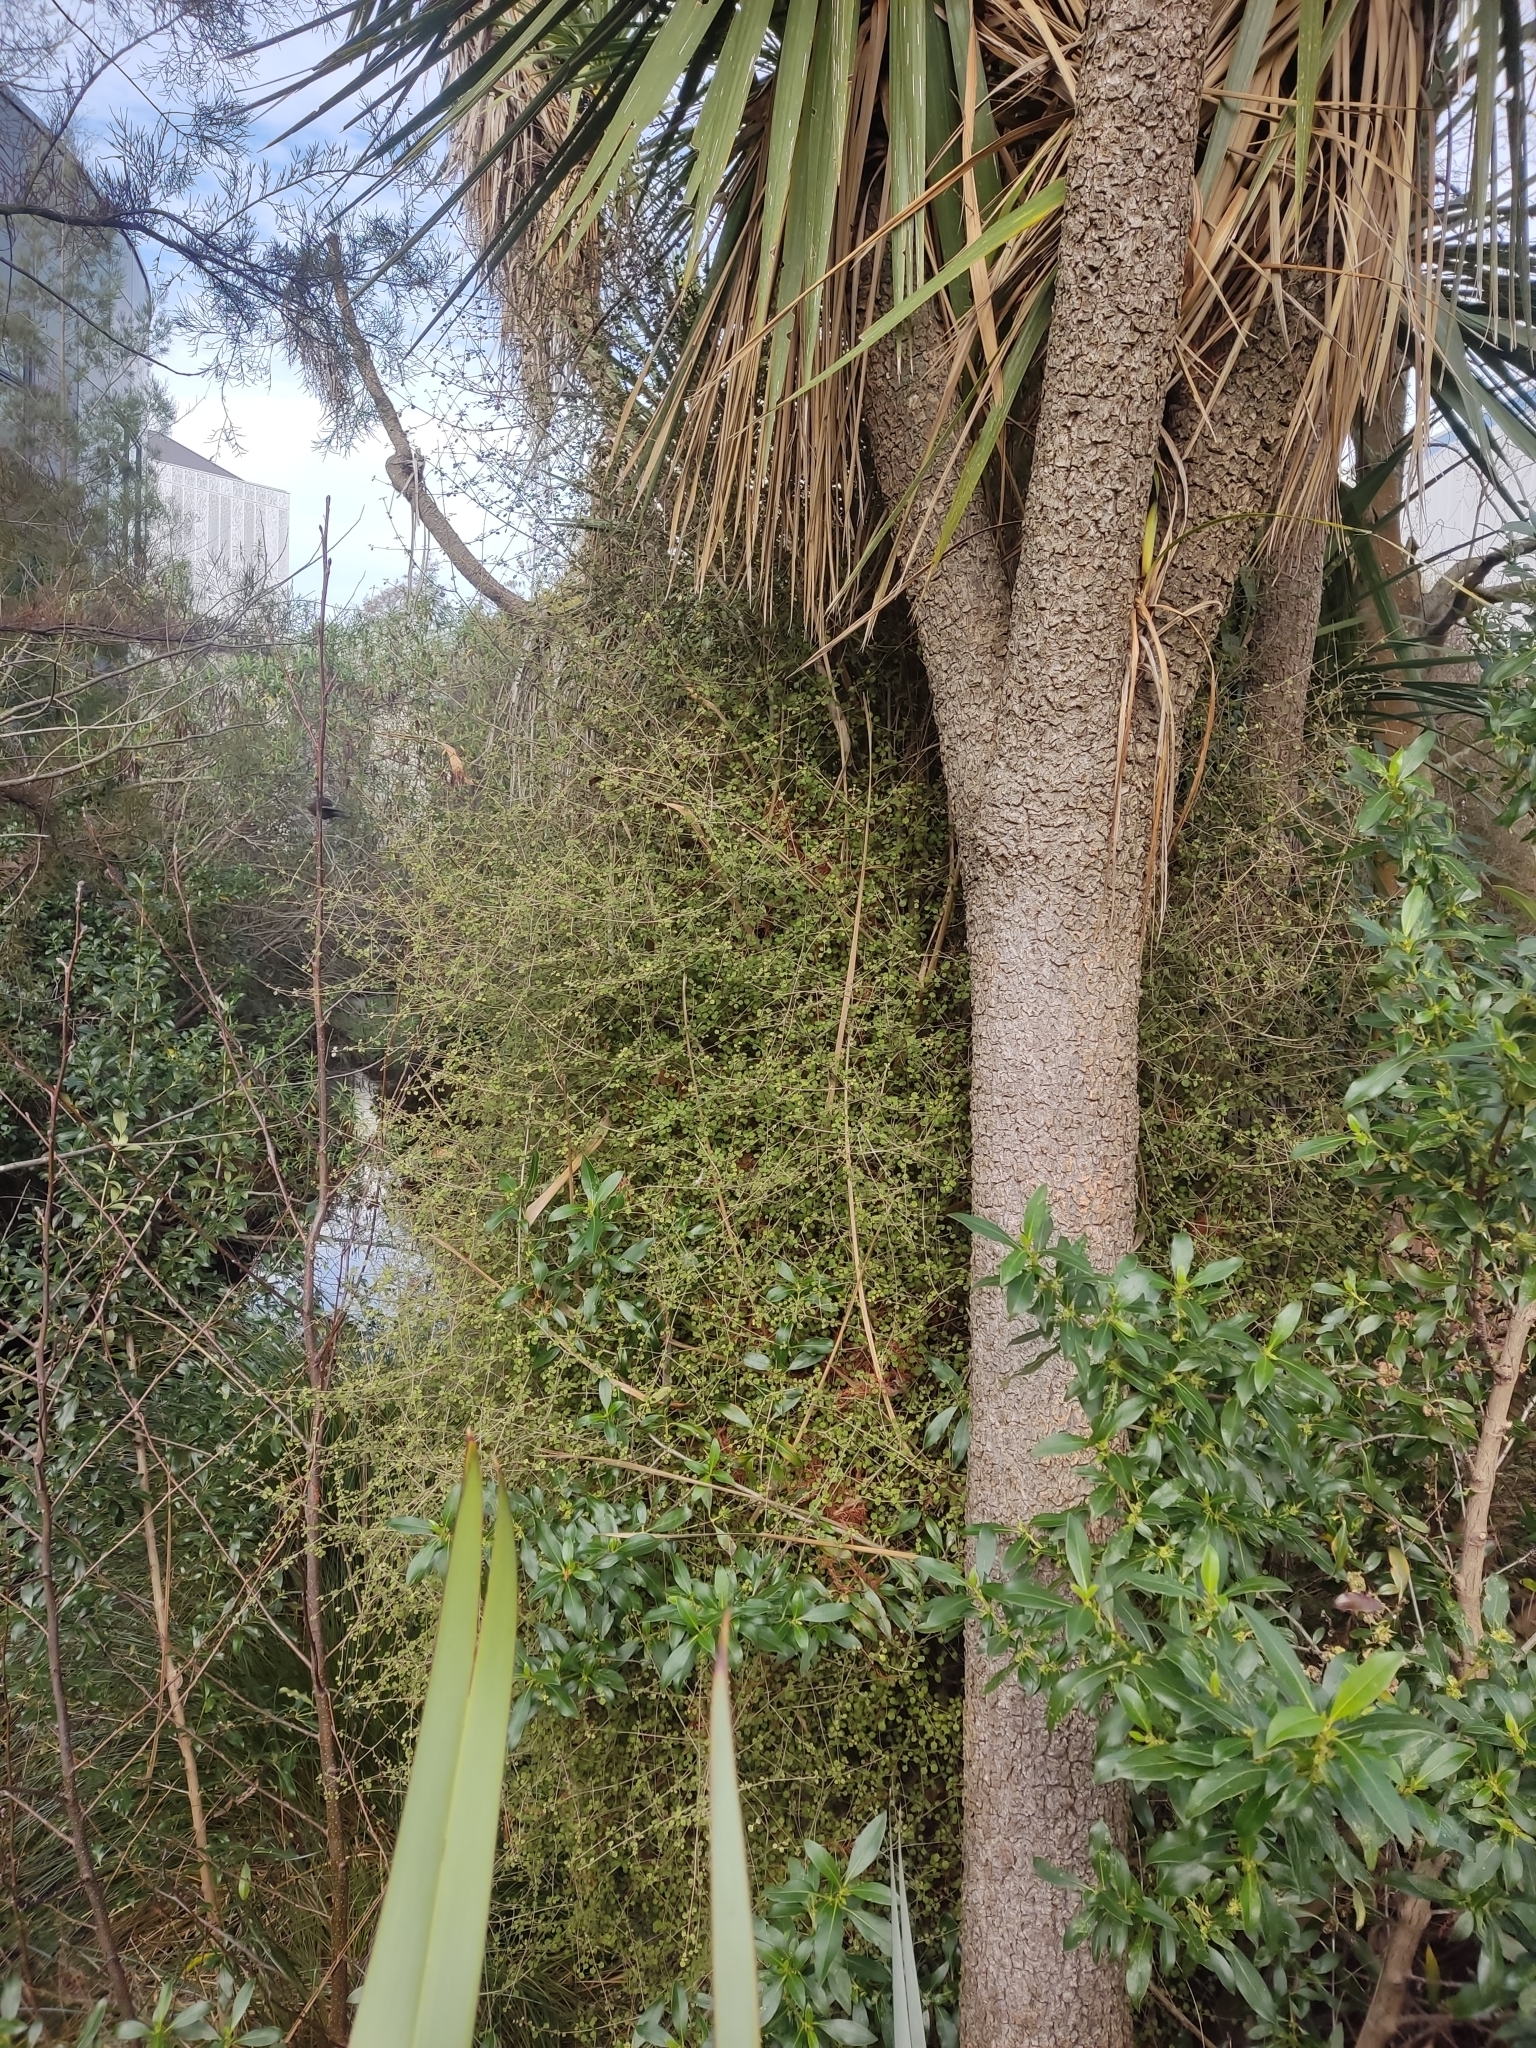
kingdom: Plantae
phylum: Tracheophyta
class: Magnoliopsida
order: Gentianales
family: Rubiaceae
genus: Coprosma
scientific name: Coprosma areolata
